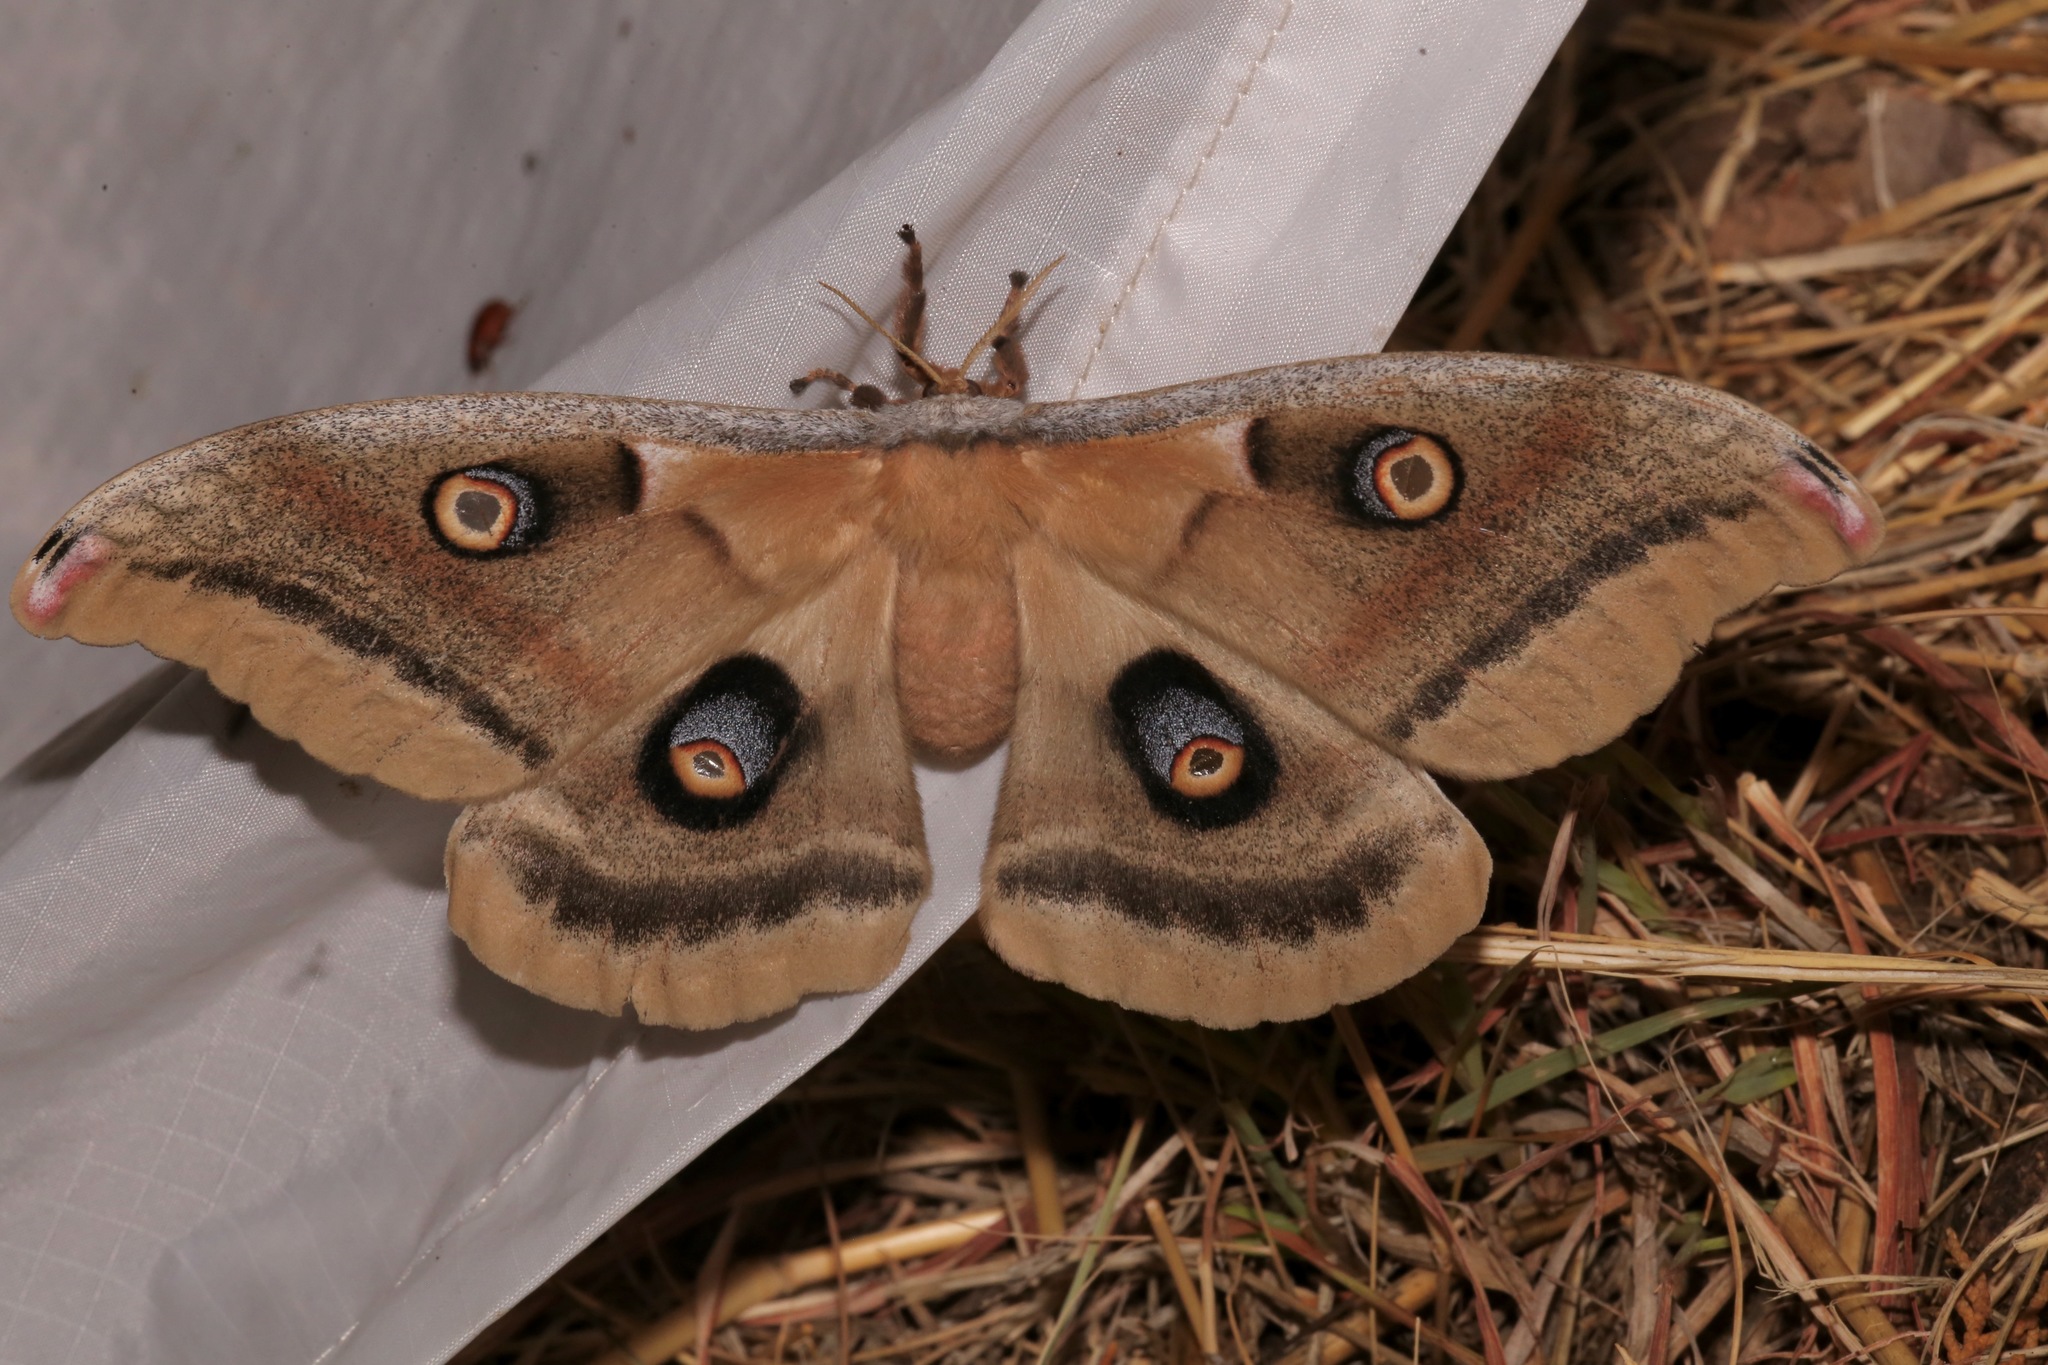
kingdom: Animalia
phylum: Arthropoda
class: Insecta
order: Lepidoptera
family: Saturniidae
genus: Antheraea
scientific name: Antheraea oculea
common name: Arizona polyphemus moth
